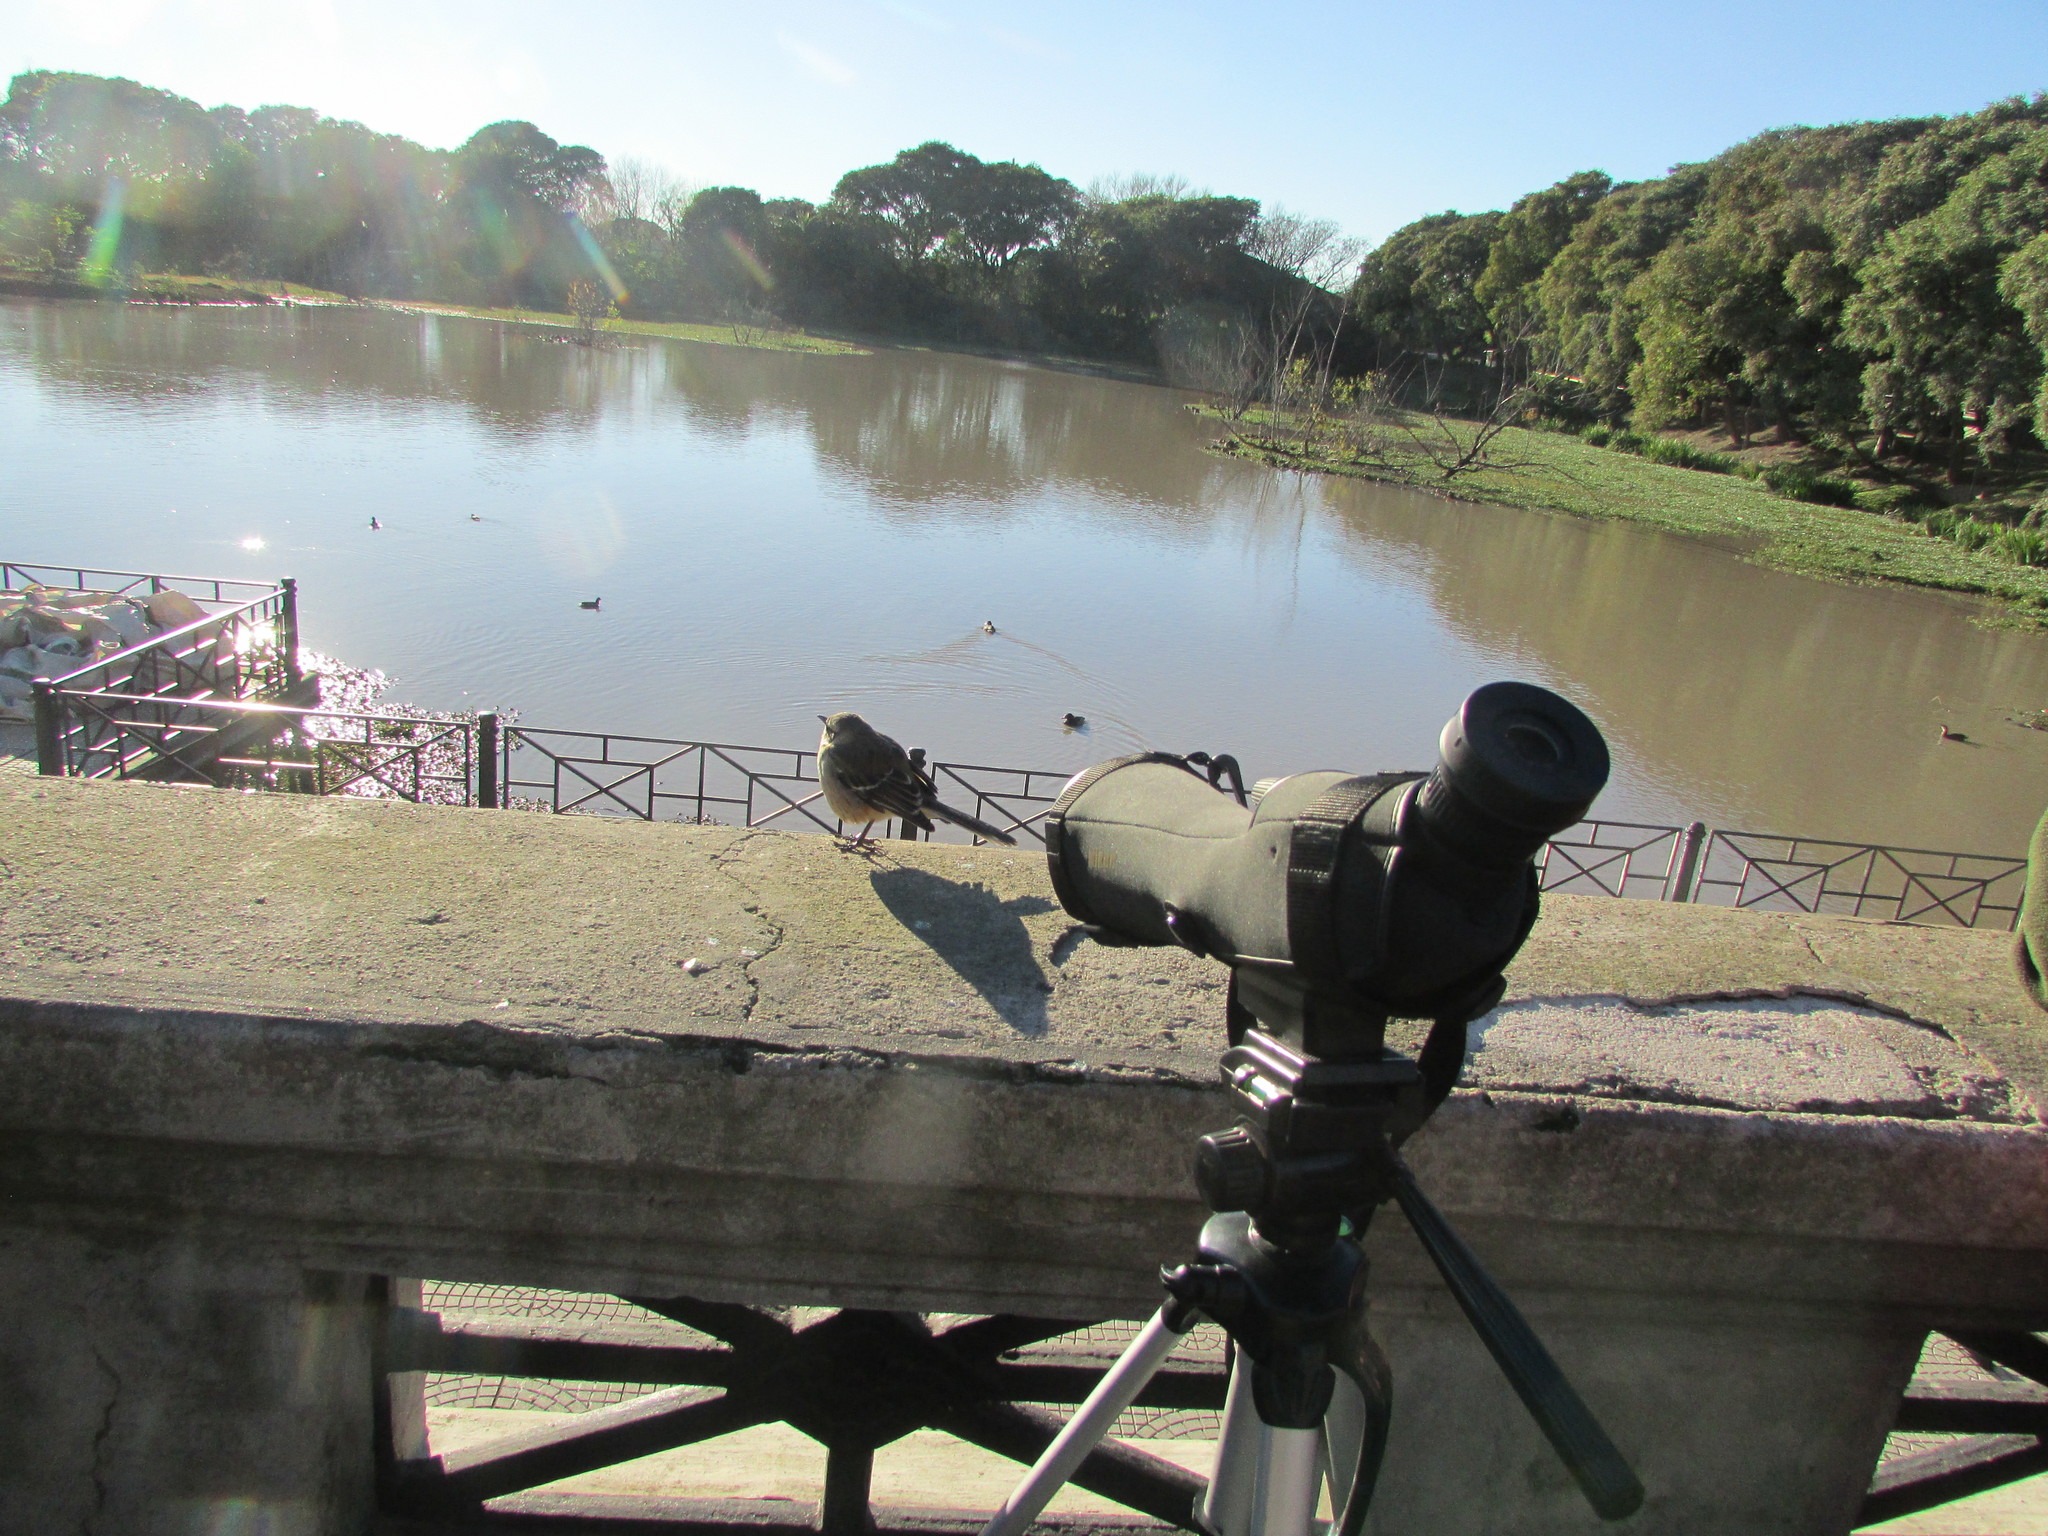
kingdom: Animalia
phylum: Chordata
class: Aves
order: Passeriformes
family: Mimidae
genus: Mimus
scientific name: Mimus saturninus
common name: Chalk-browed mockingbird
